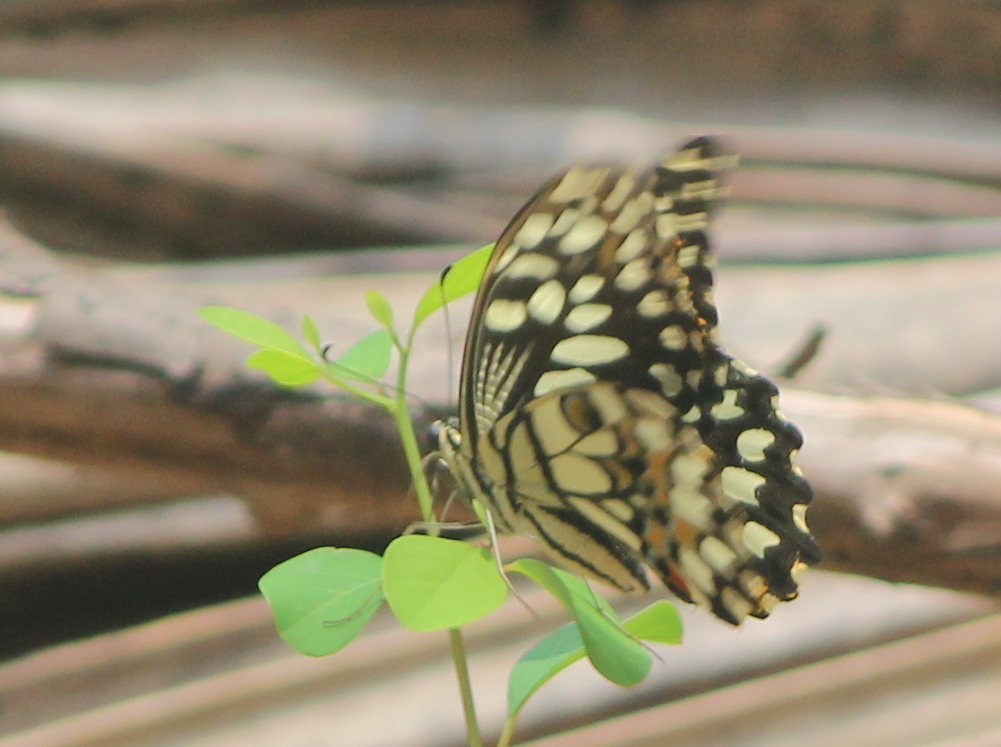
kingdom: Animalia
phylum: Arthropoda
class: Insecta
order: Lepidoptera
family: Papilionidae
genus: Papilio
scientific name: Papilio demoleus
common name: Lime butterfly
